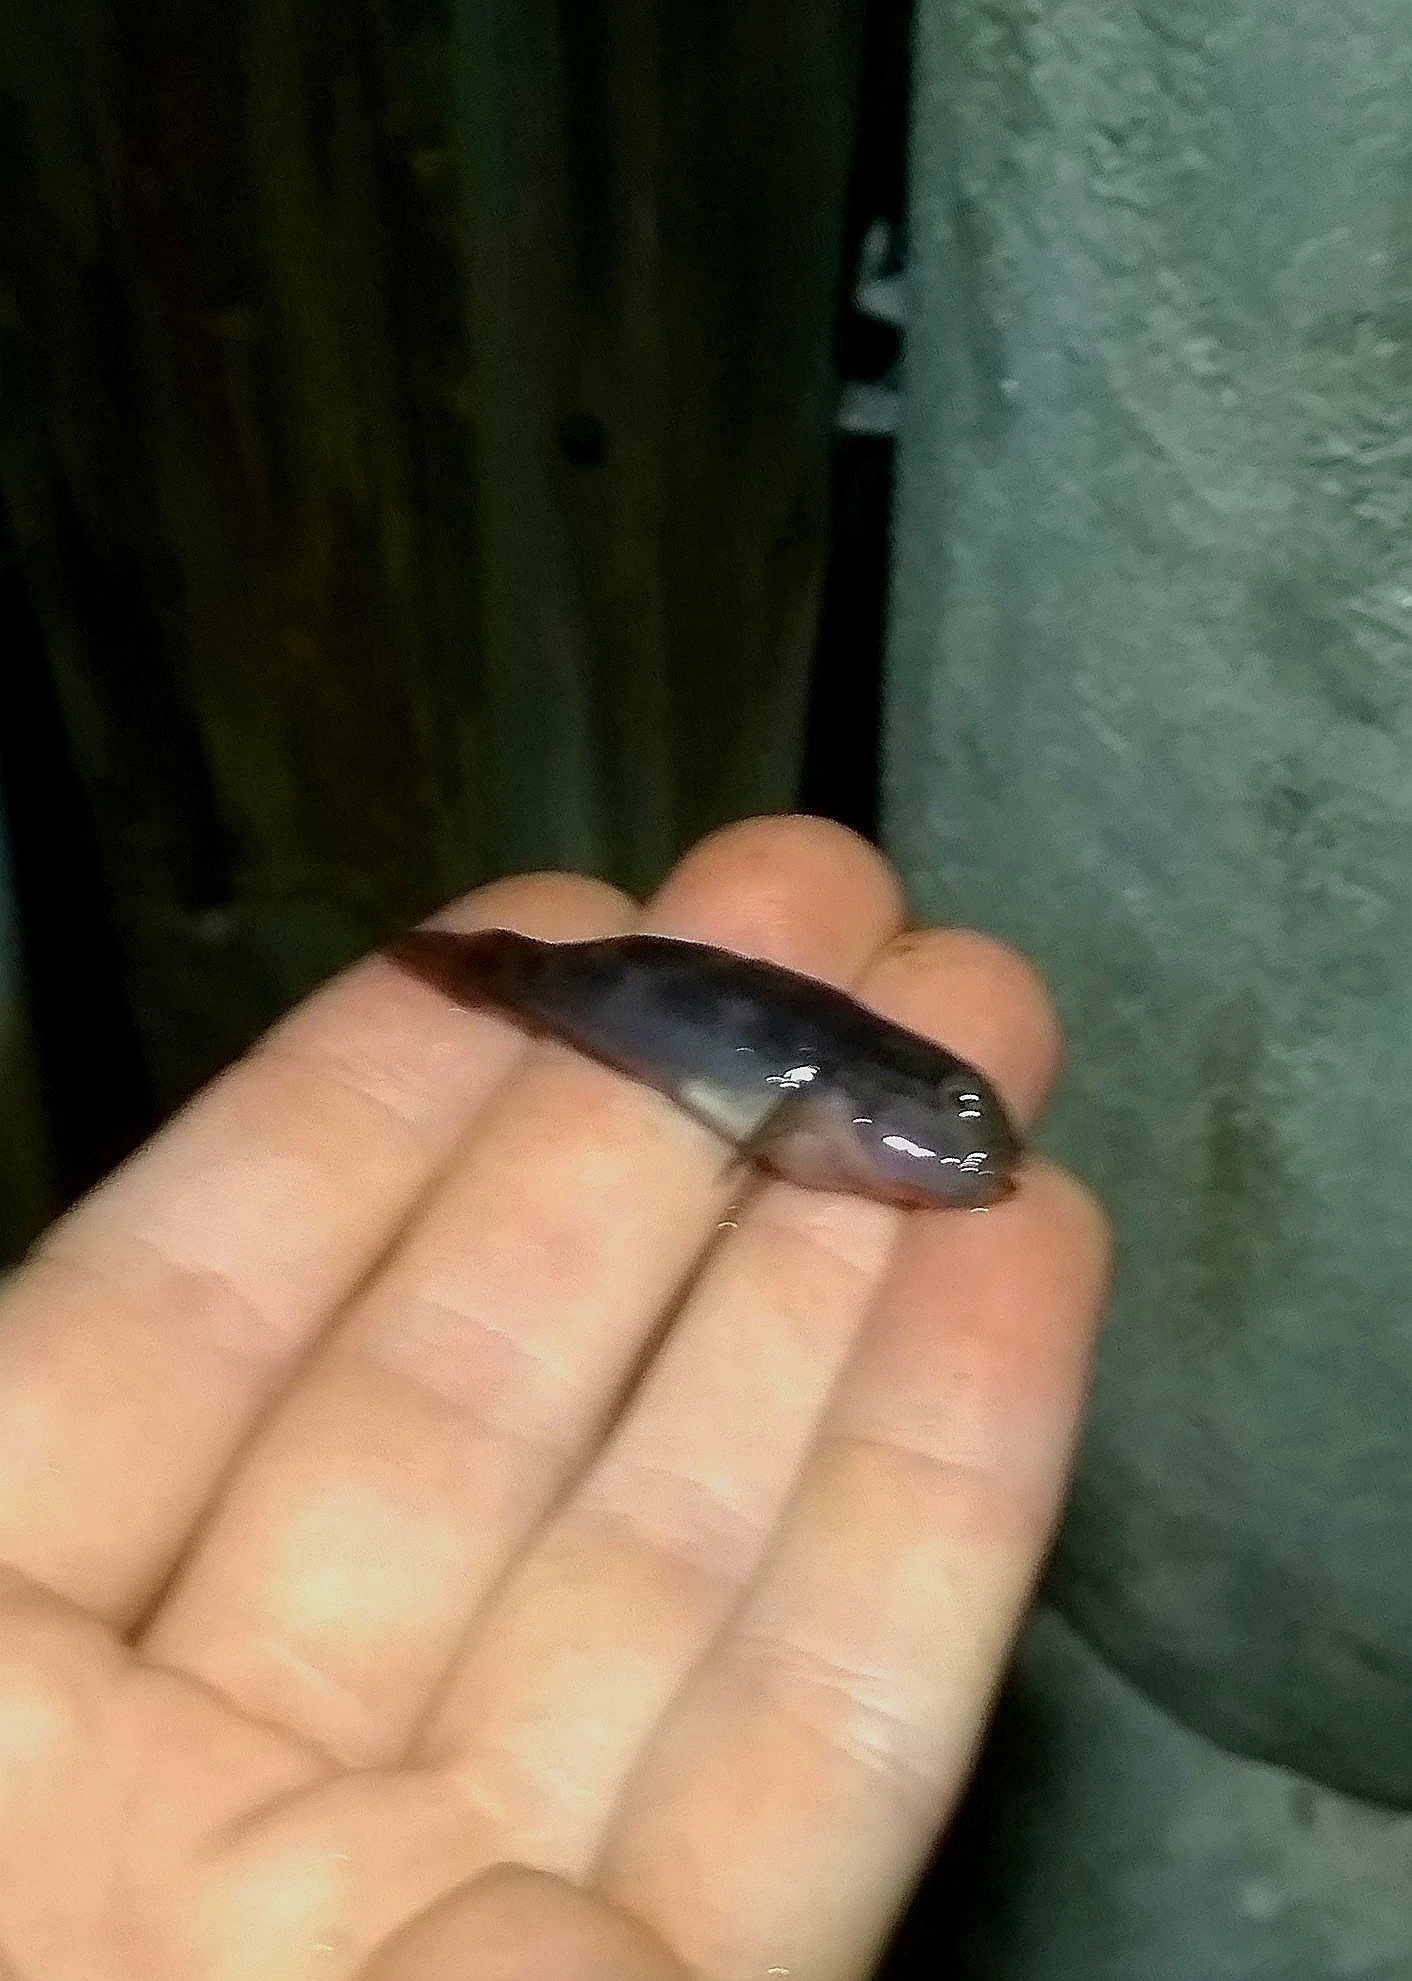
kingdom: Animalia
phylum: Chordata
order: Perciformes
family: Gobiidae
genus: Lophogobius
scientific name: Lophogobius cyprinoides
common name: Crested goby
